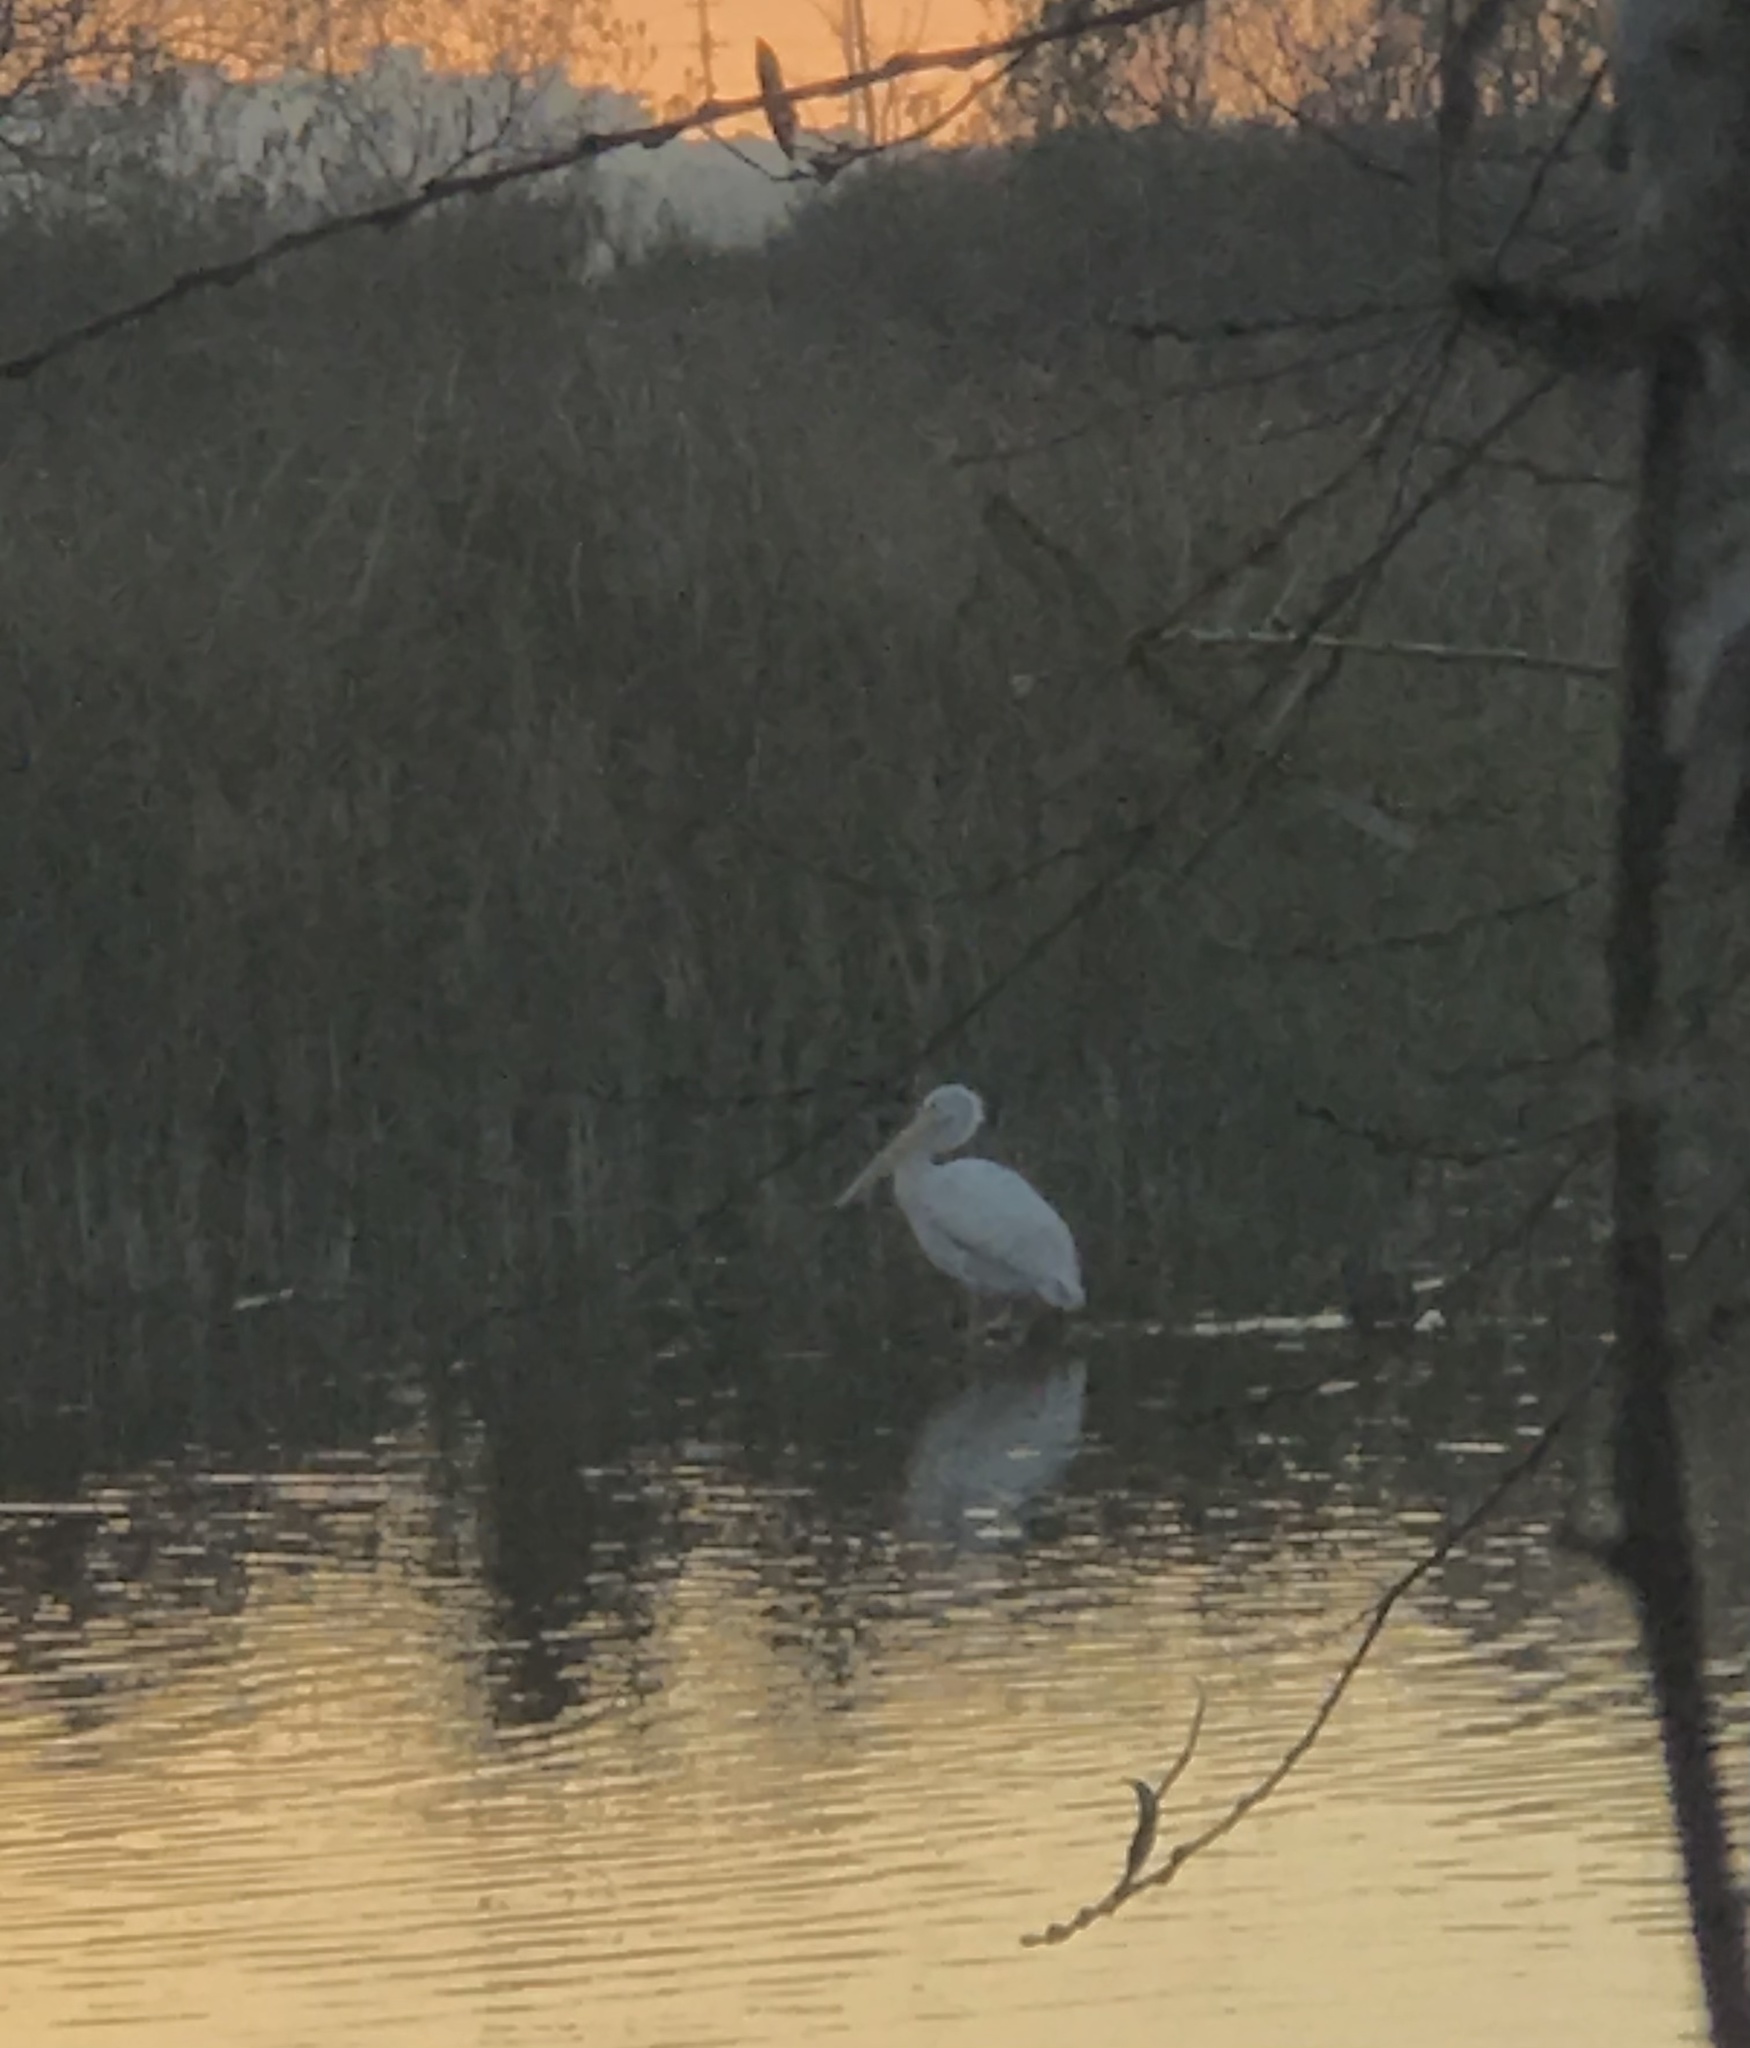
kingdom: Animalia
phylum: Chordata
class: Aves
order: Pelecaniformes
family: Pelecanidae
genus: Pelecanus
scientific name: Pelecanus erythrorhynchos
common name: American white pelican
